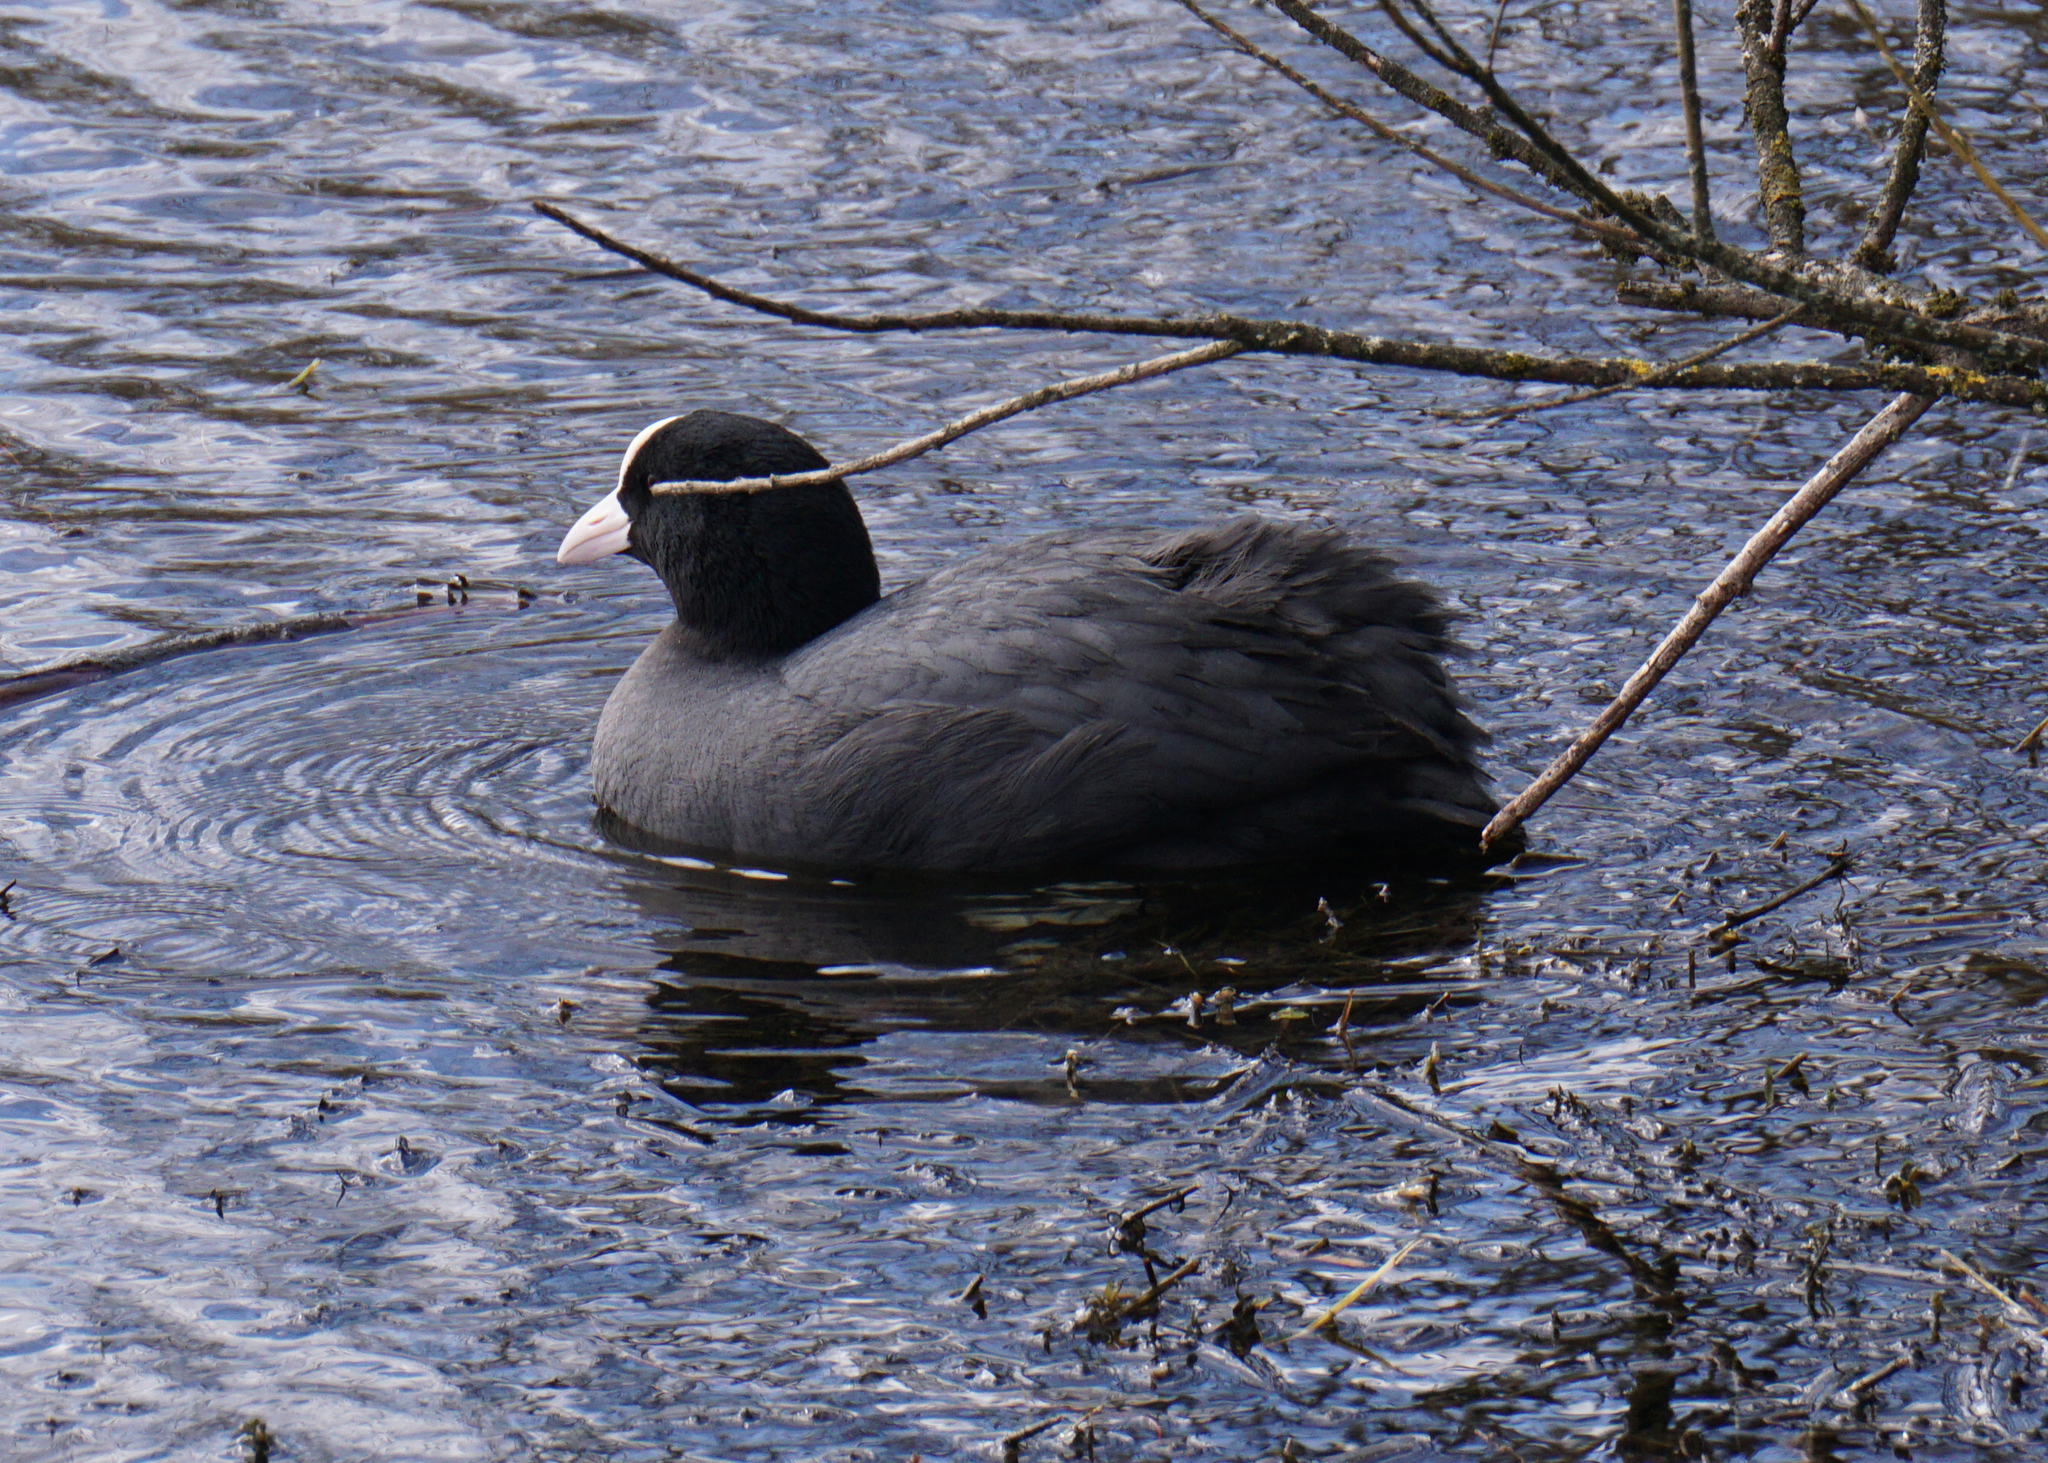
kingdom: Animalia
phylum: Chordata
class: Aves
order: Gruiformes
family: Rallidae
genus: Fulica
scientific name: Fulica atra
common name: Eurasian coot
